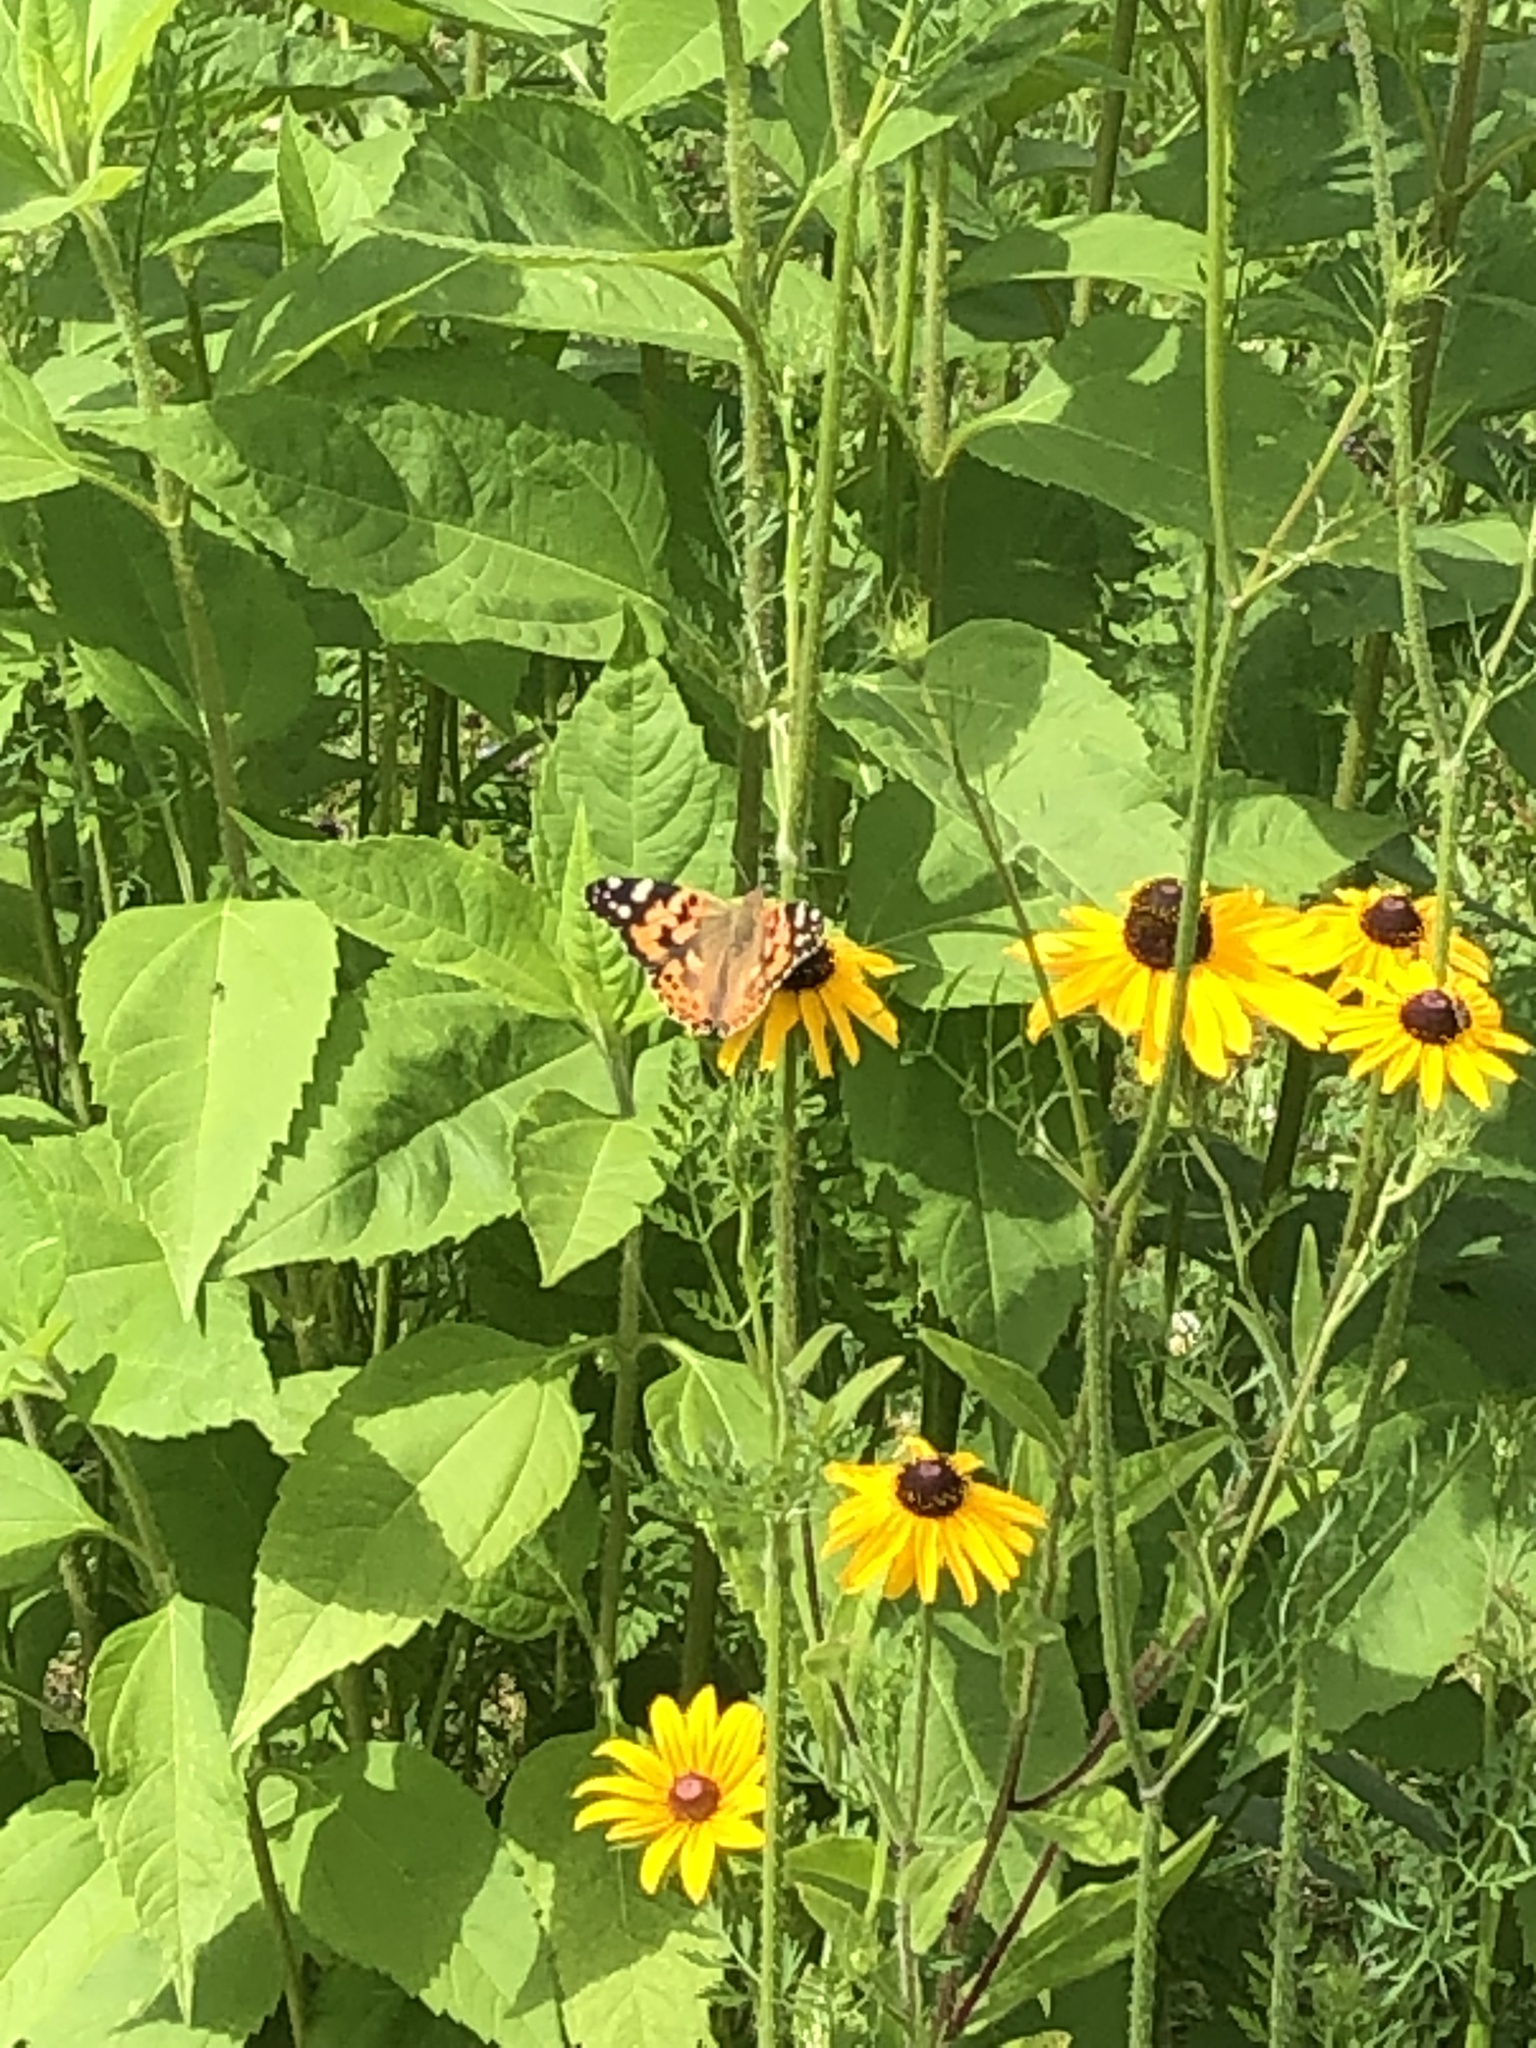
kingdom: Animalia
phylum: Arthropoda
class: Insecta
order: Lepidoptera
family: Nymphalidae
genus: Vanessa
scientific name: Vanessa cardui
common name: Painted lady
